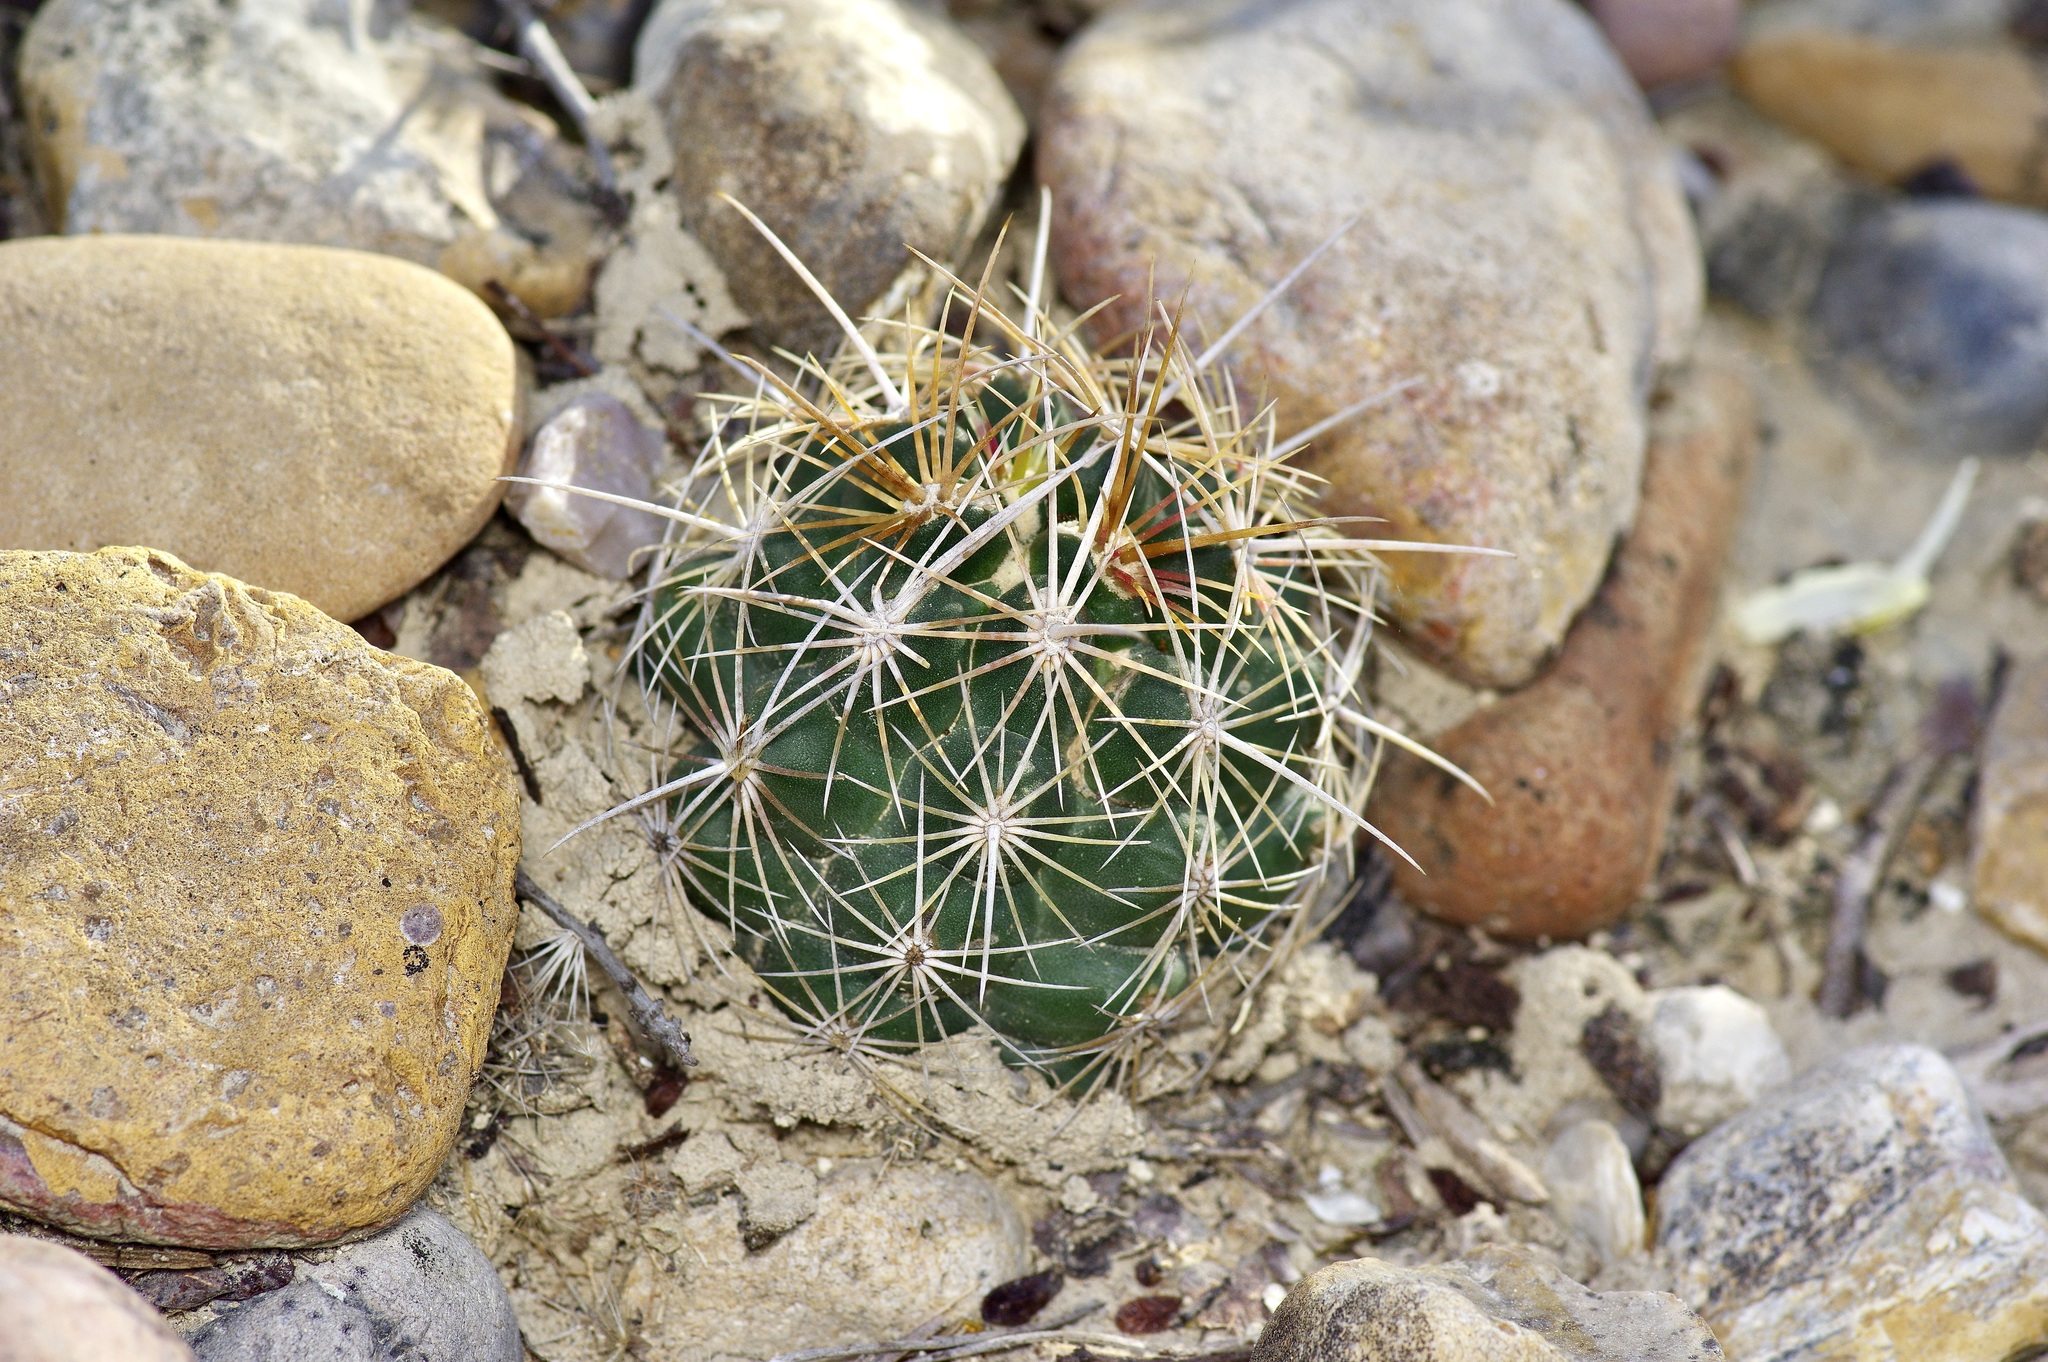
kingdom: Plantae
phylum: Tracheophyta
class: Magnoliopsida
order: Caryophyllales
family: Cactaceae
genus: Thelocactus
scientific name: Thelocactus bicolor
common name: Glory of texas
